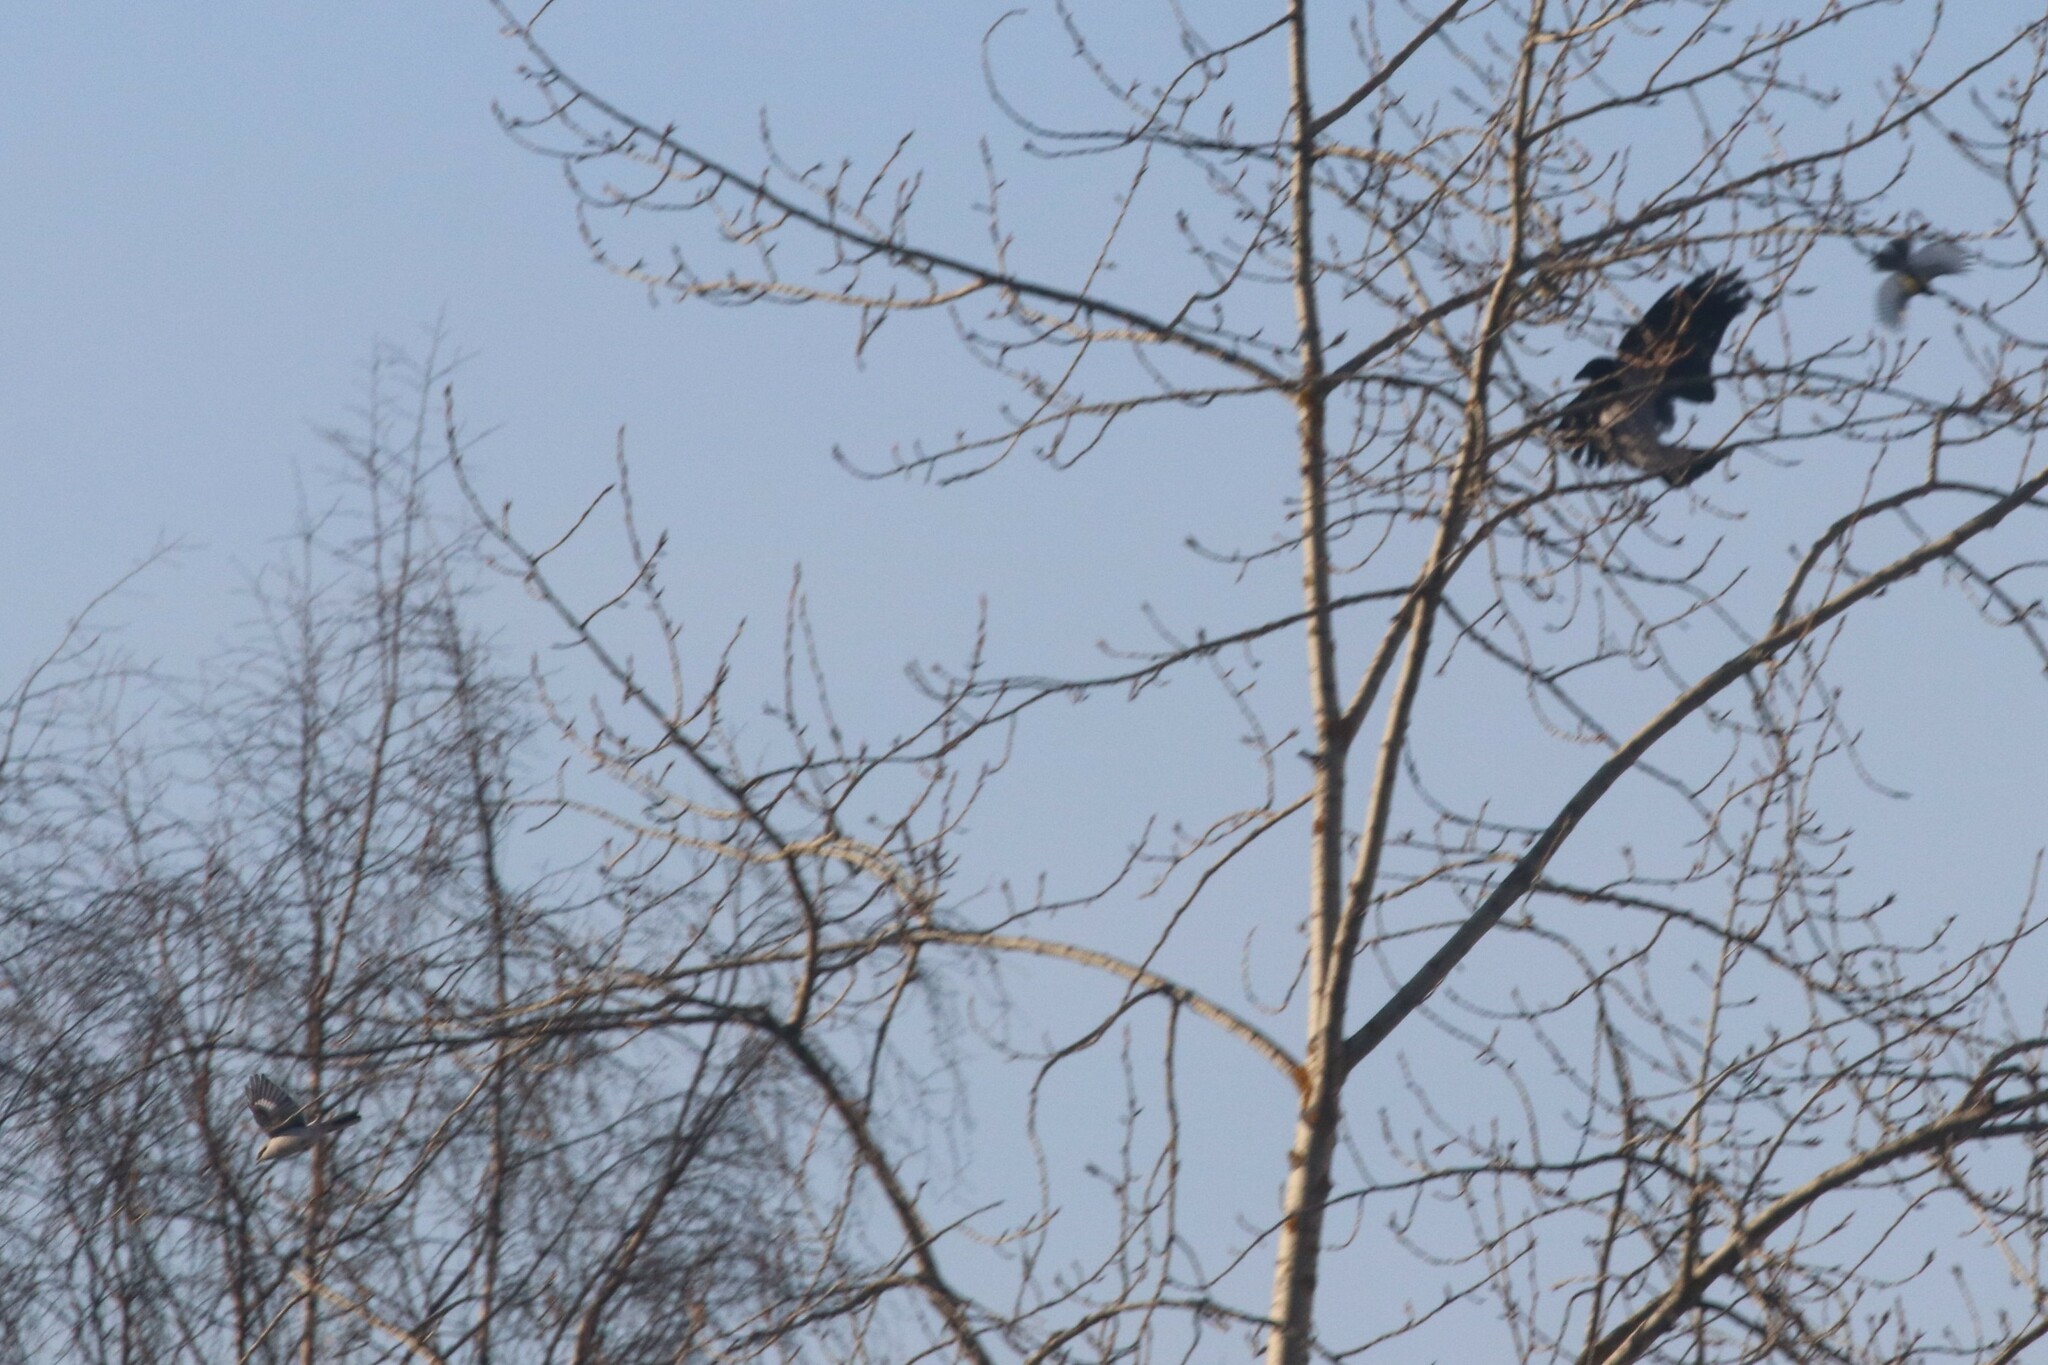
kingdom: Animalia
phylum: Chordata
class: Aves
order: Passeriformes
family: Laniidae
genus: Lanius
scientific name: Lanius excubitor
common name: Great grey shrike
